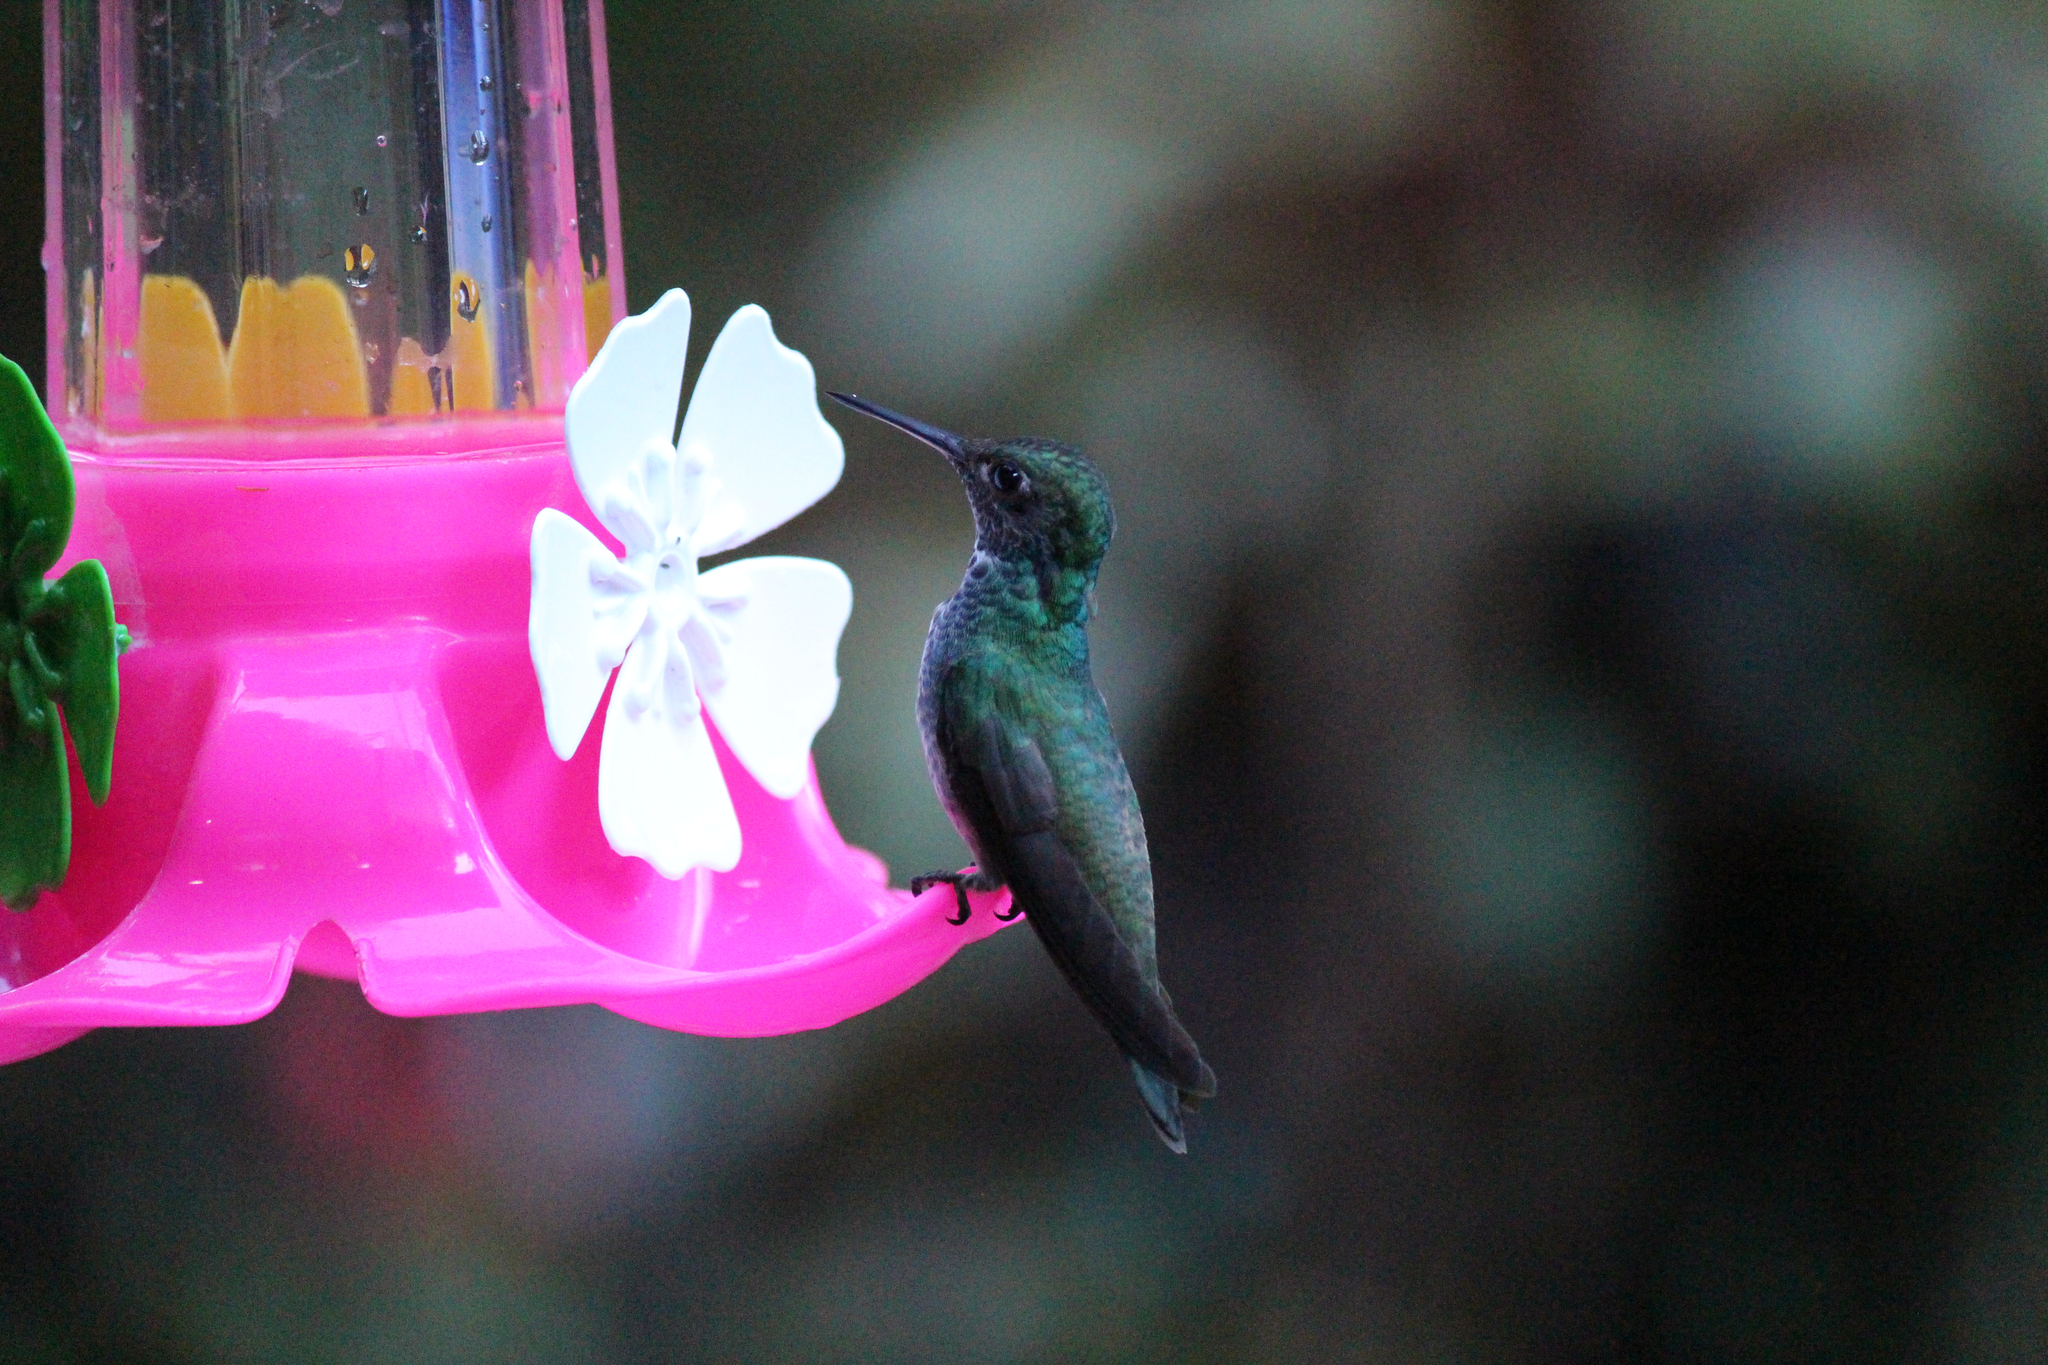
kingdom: Animalia
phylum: Chordata
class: Aves
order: Apodiformes
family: Trochilidae
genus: Chrysuronia
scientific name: Chrysuronia versicolor
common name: Versicolored emerald
